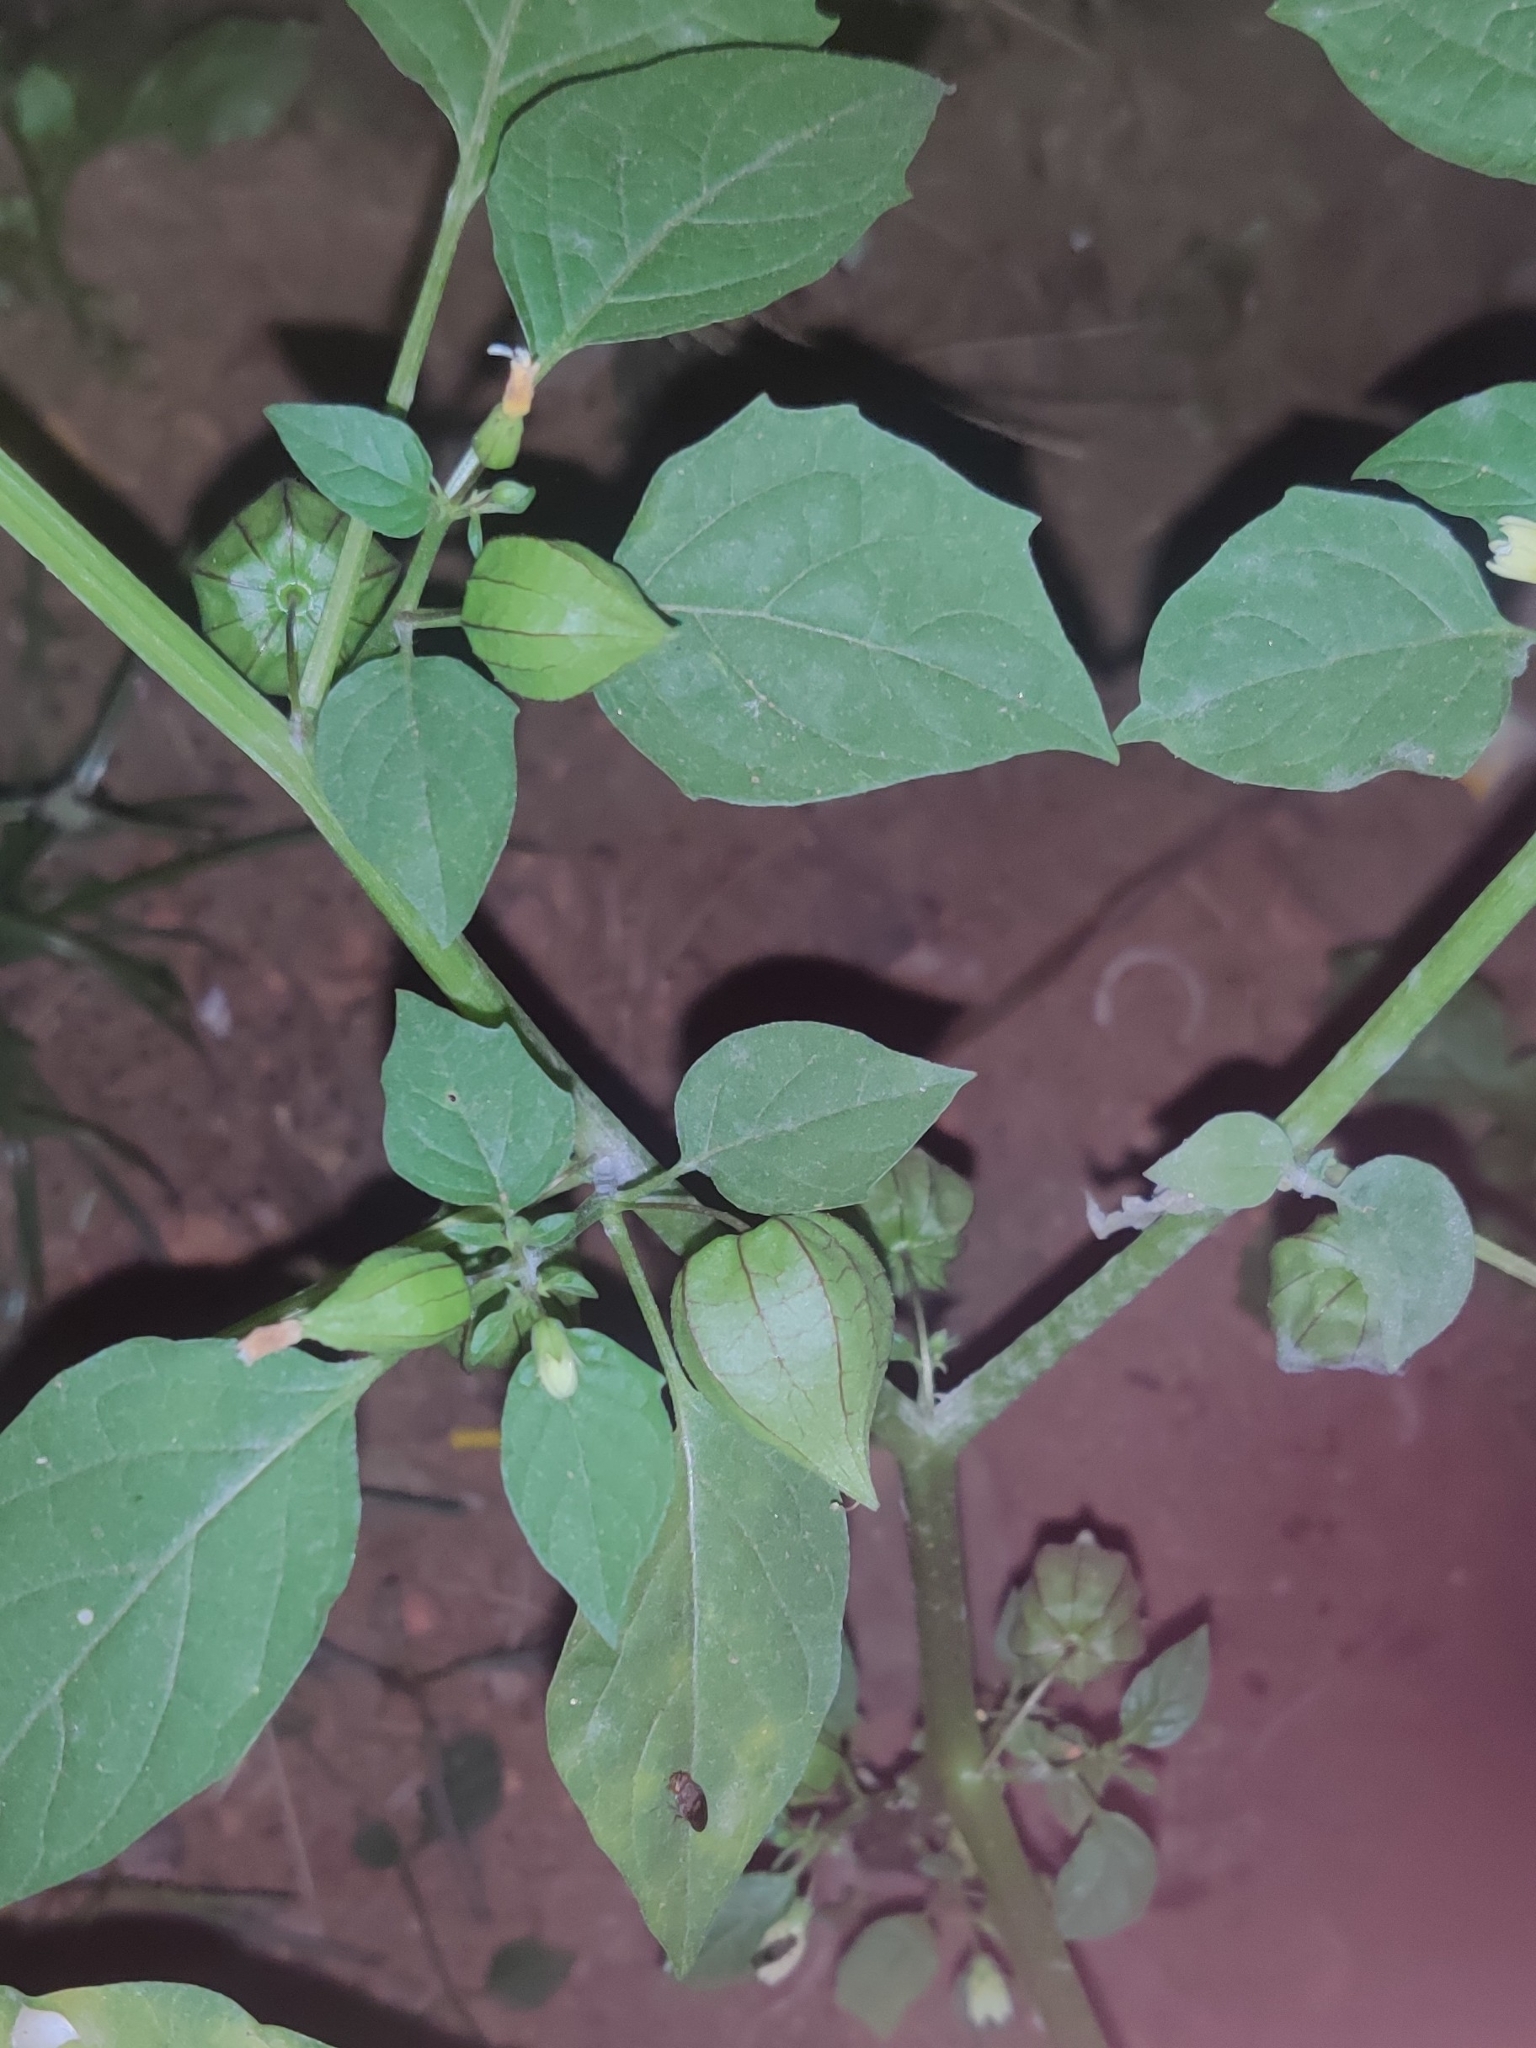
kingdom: Plantae
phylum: Tracheophyta
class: Magnoliopsida
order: Solanales
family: Solanaceae
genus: Physalis
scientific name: Physalis angulata
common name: Angular winter-cherry
